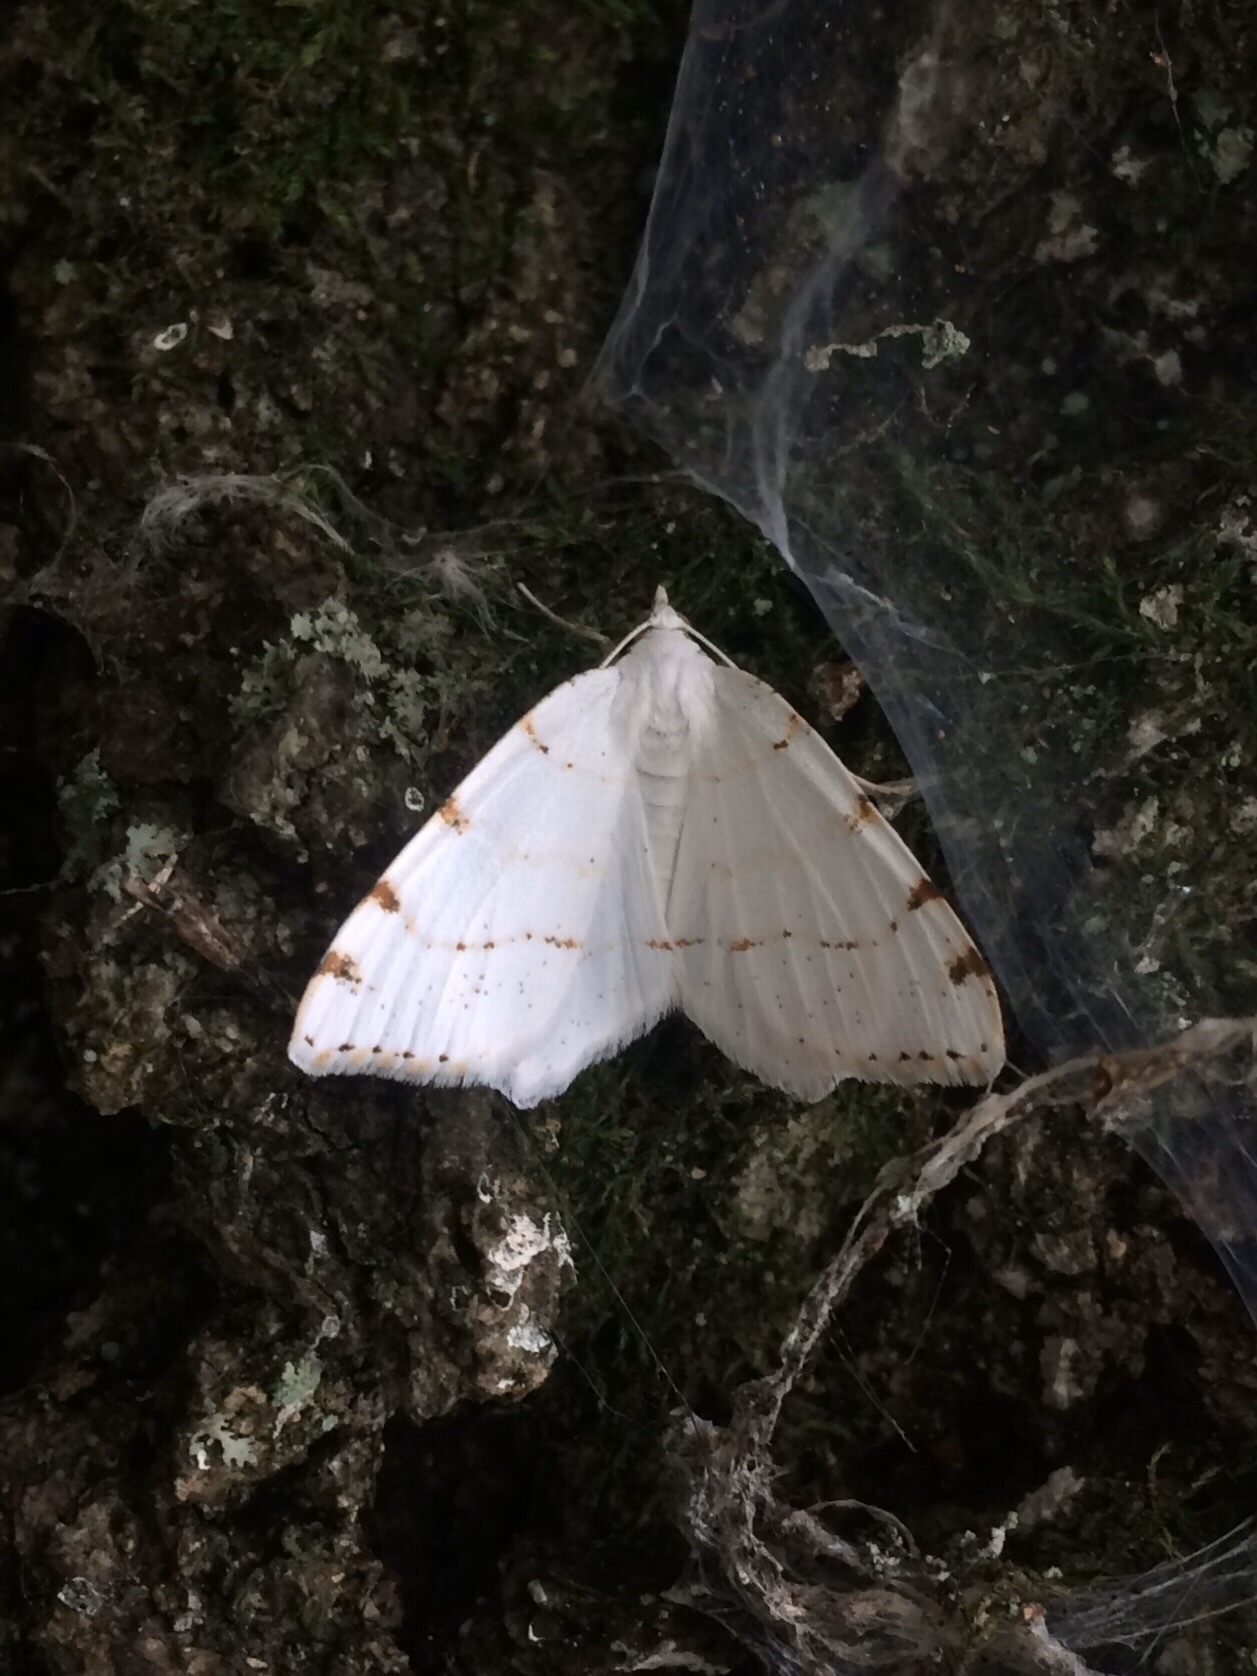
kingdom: Animalia
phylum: Arthropoda
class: Insecta
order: Lepidoptera
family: Geometridae
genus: Macaria
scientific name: Macaria pustularia
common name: Lesser maple spanworm moth
